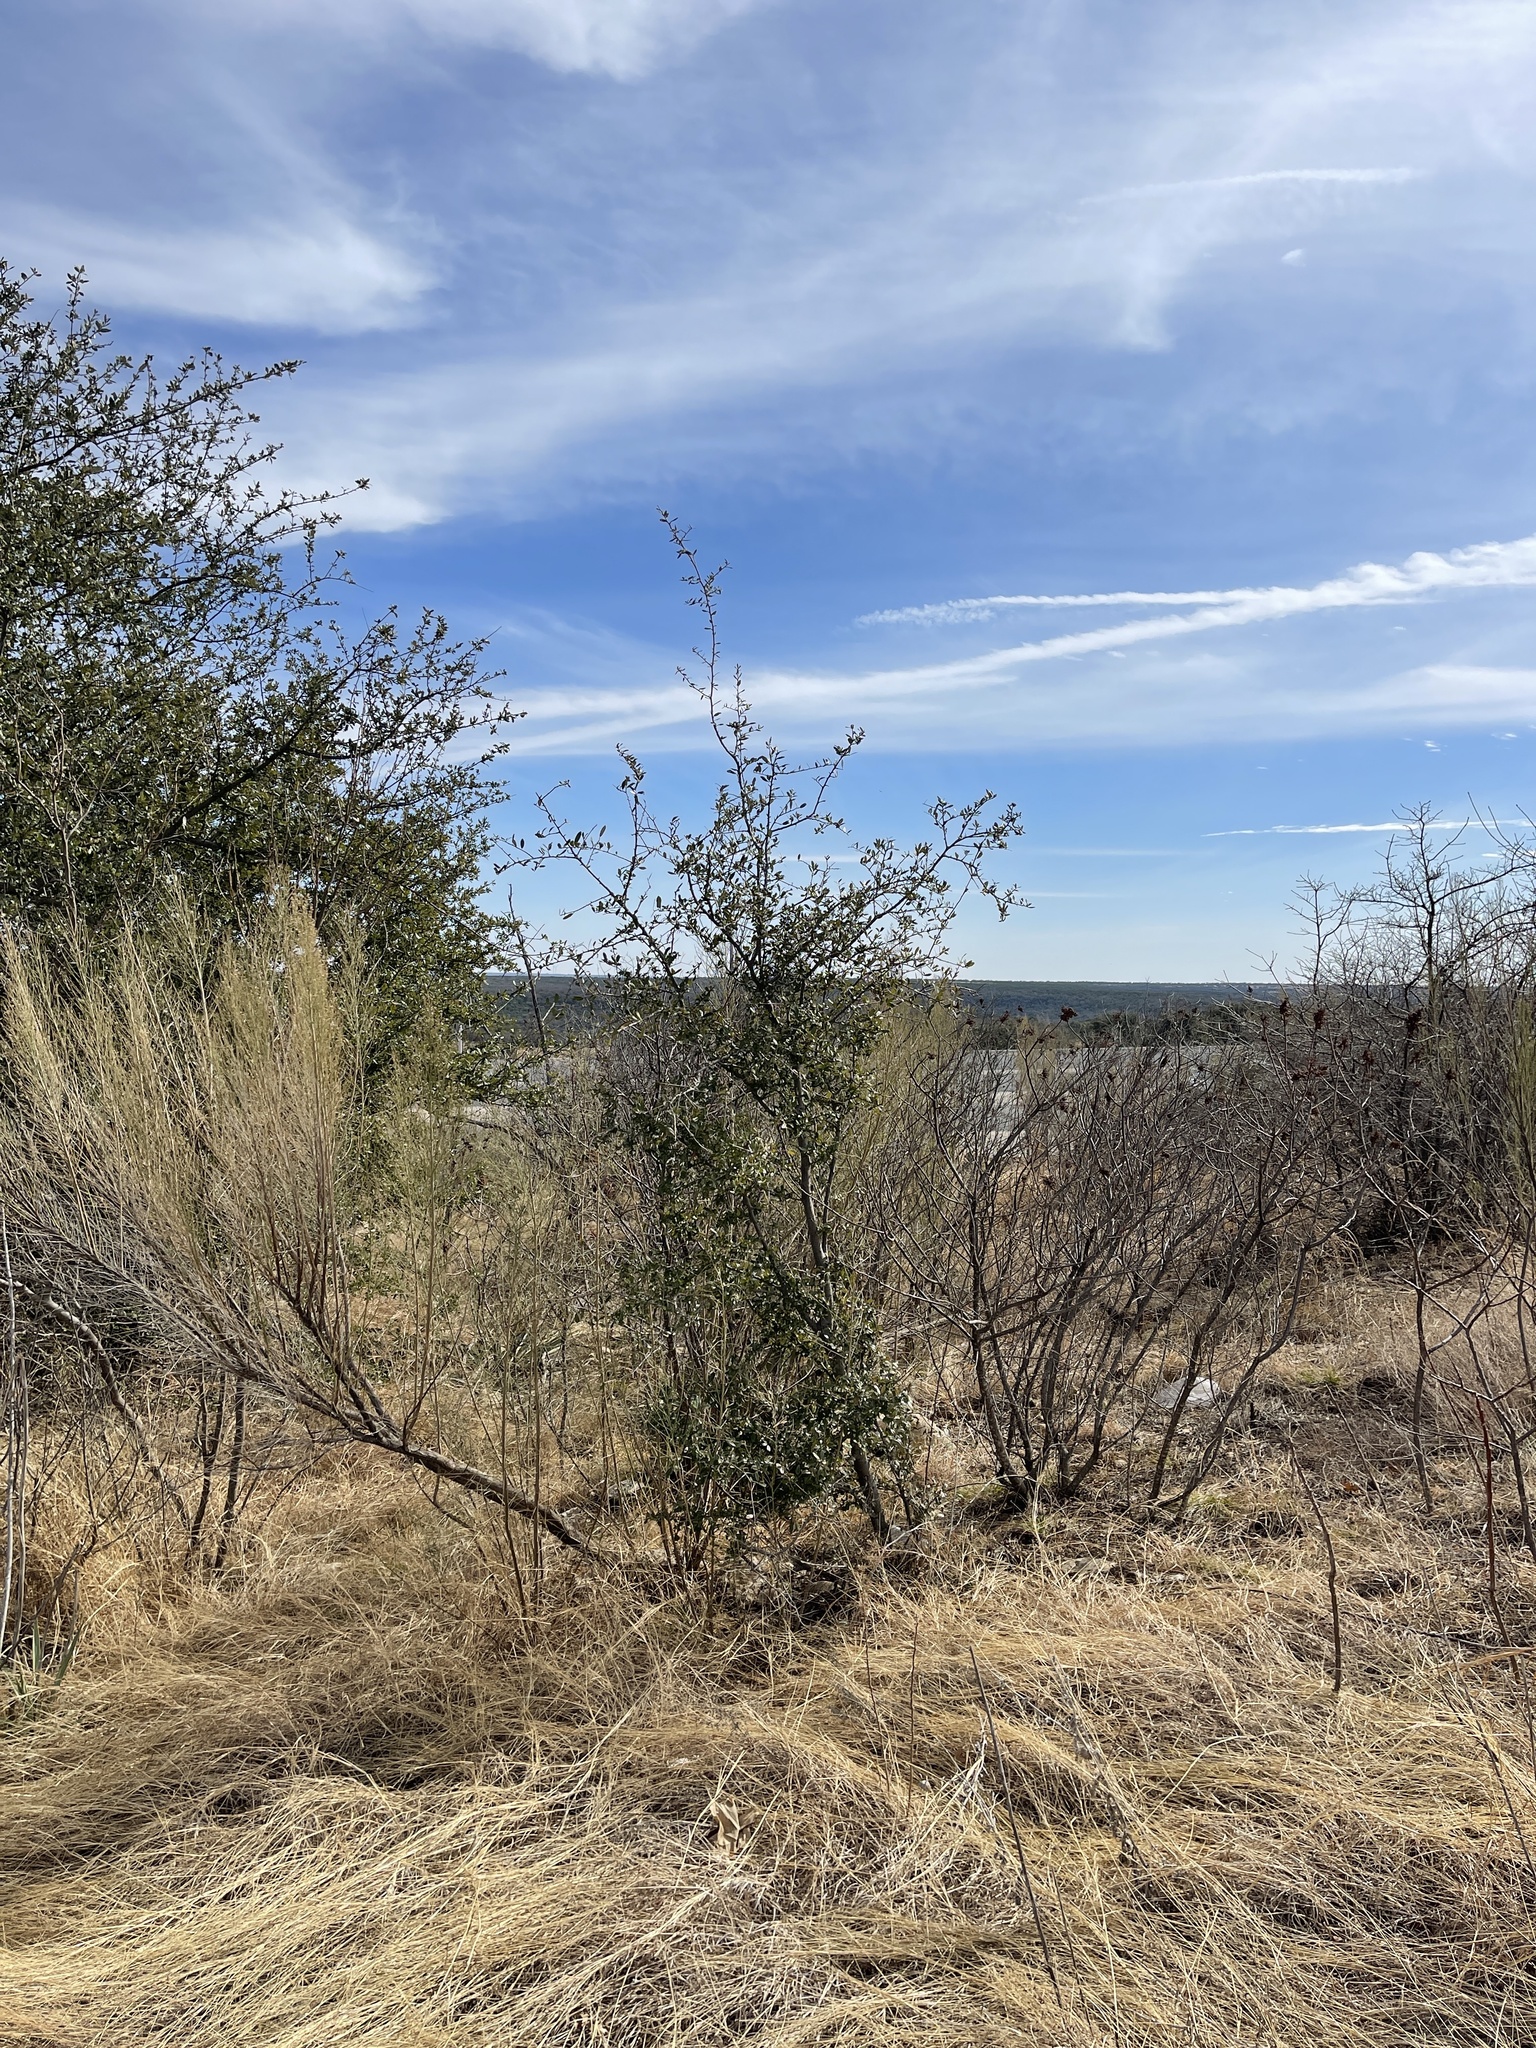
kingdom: Plantae
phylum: Tracheophyta
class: Magnoliopsida
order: Fagales
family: Fagaceae
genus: Quercus
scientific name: Quercus fusiformis
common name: Texas live oak
